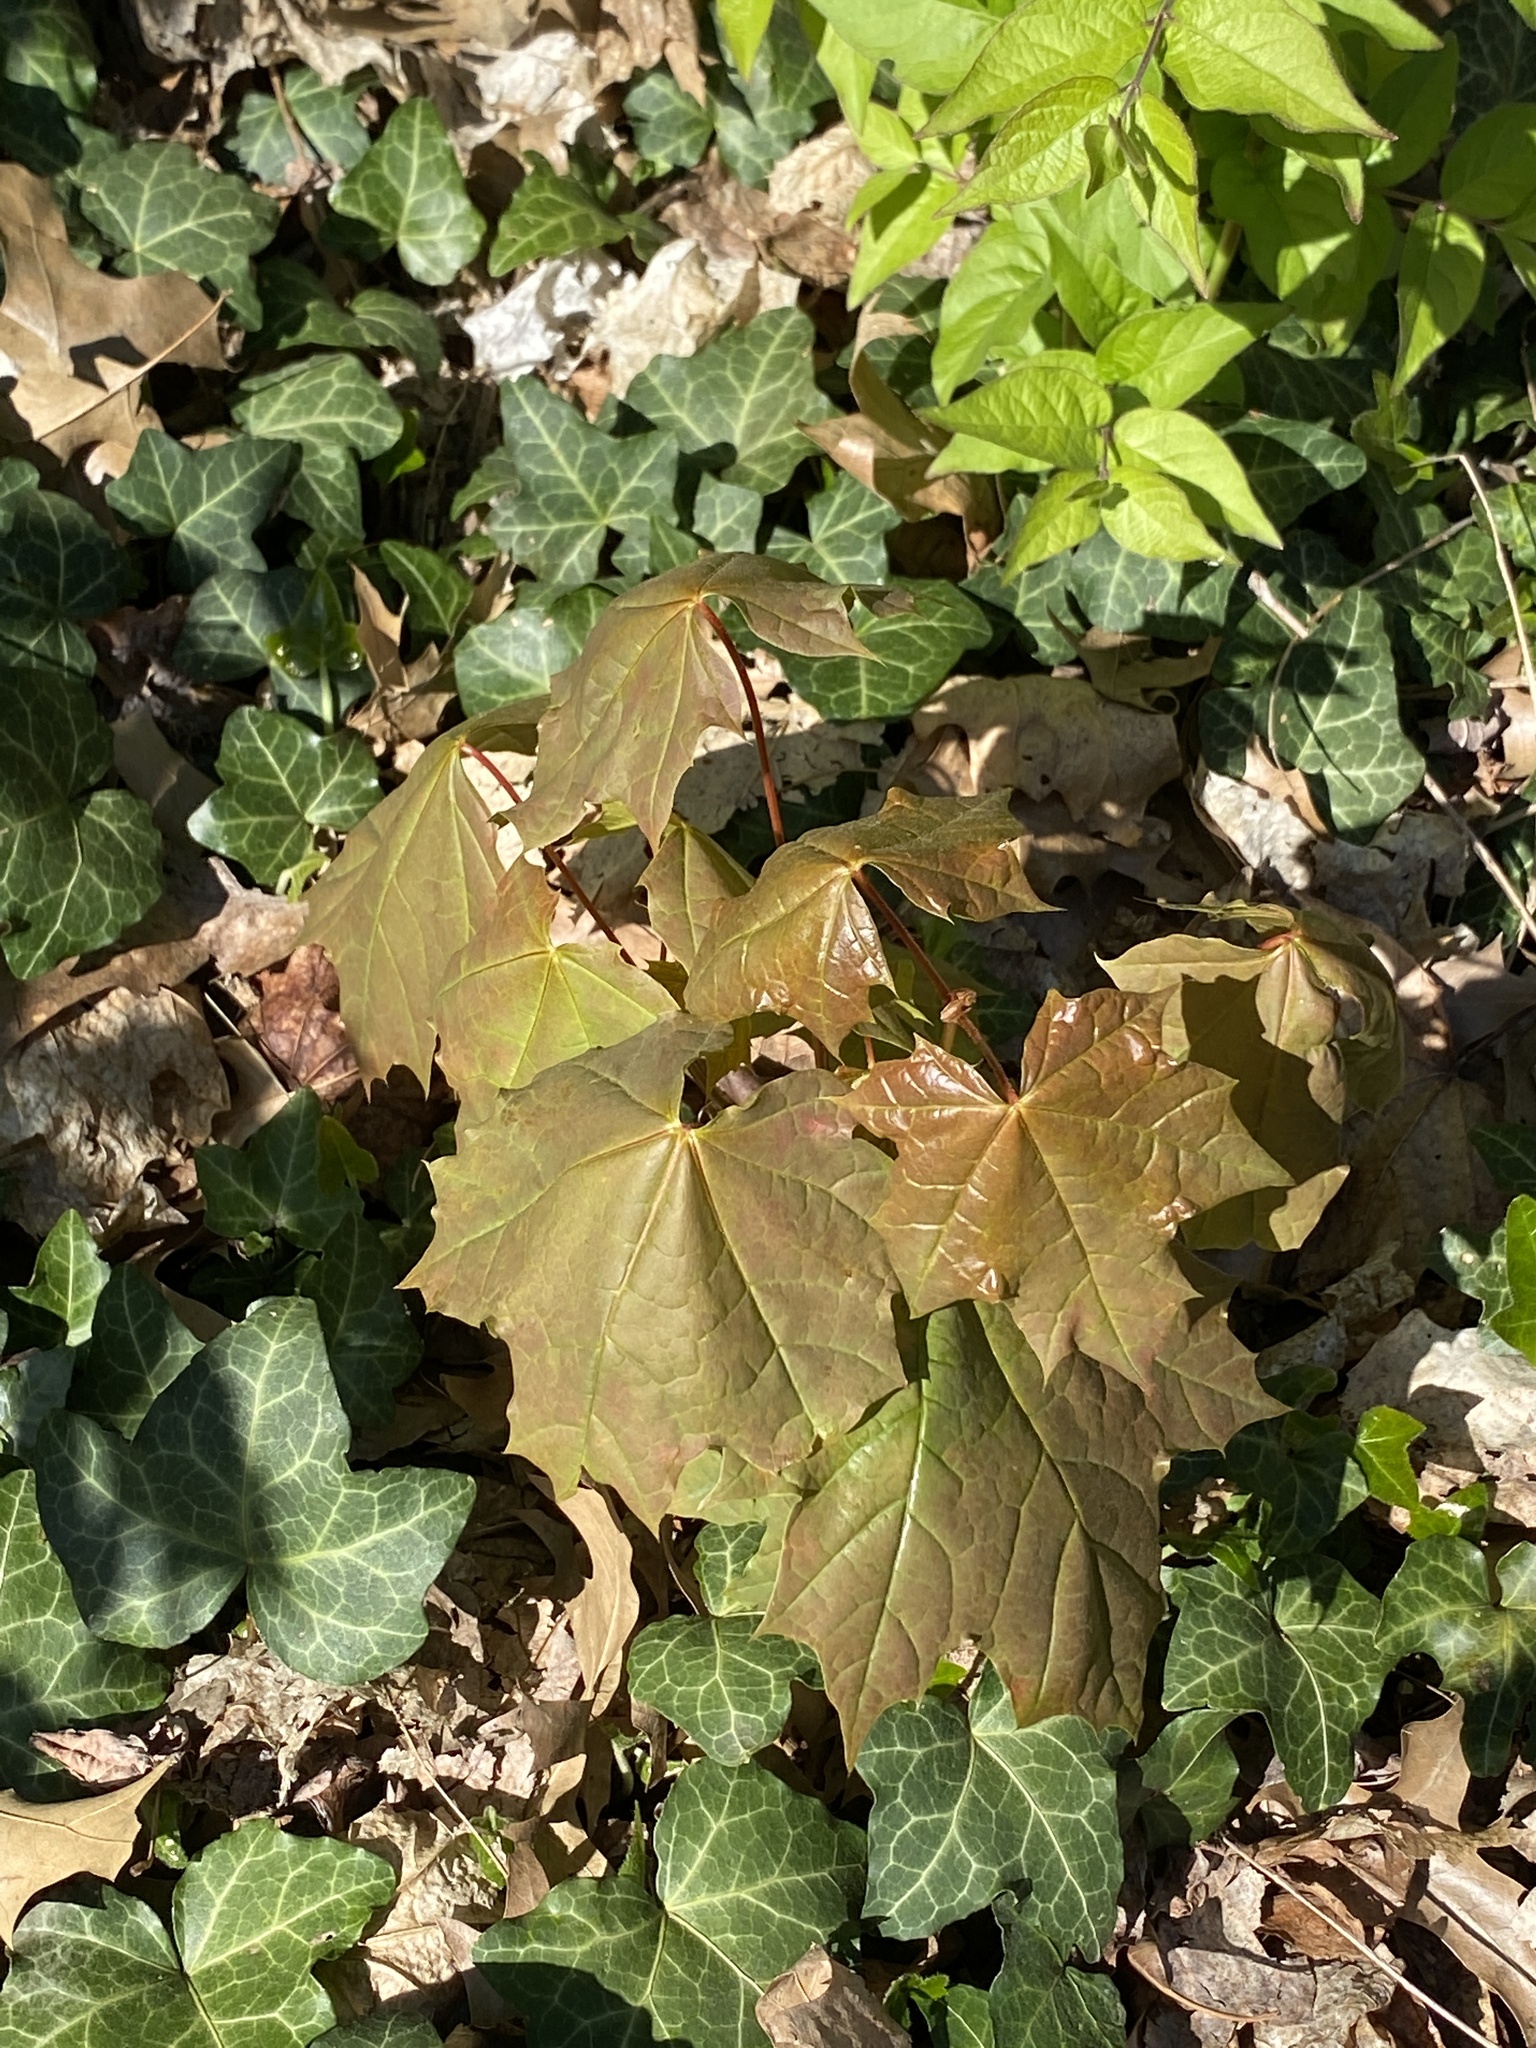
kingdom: Plantae
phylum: Tracheophyta
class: Magnoliopsida
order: Sapindales
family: Sapindaceae
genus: Acer
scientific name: Acer platanoides
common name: Norway maple
